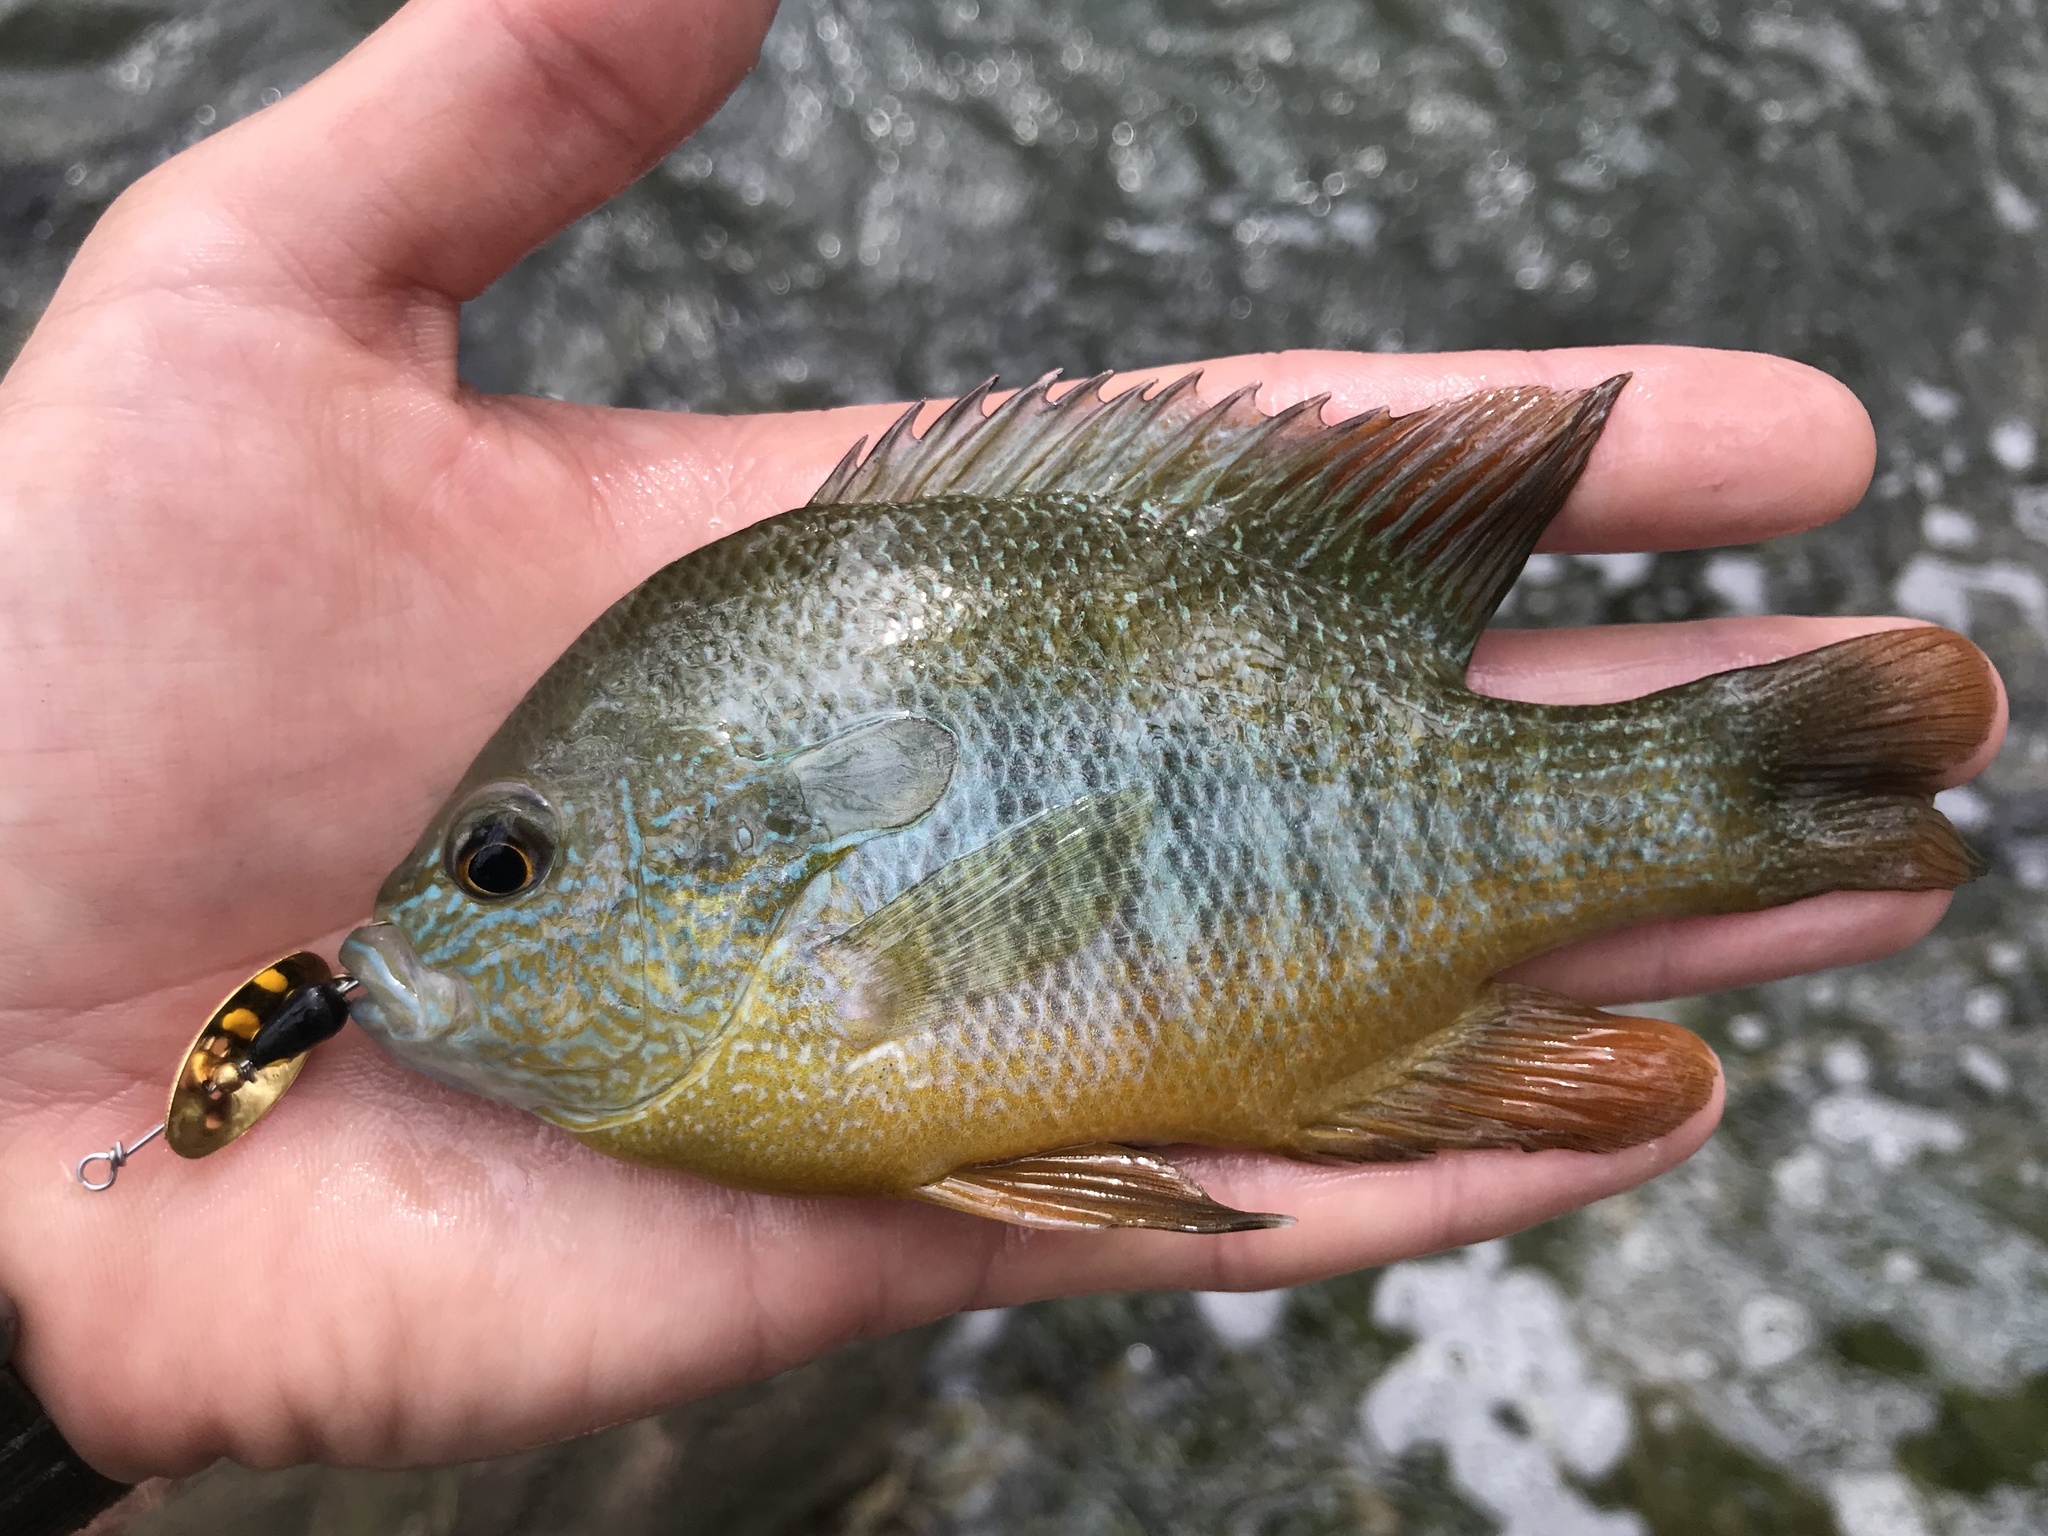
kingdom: Animalia
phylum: Chordata
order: Perciformes
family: Centrarchidae
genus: Lepomis
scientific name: Lepomis megalotis
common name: Longear sunfish
